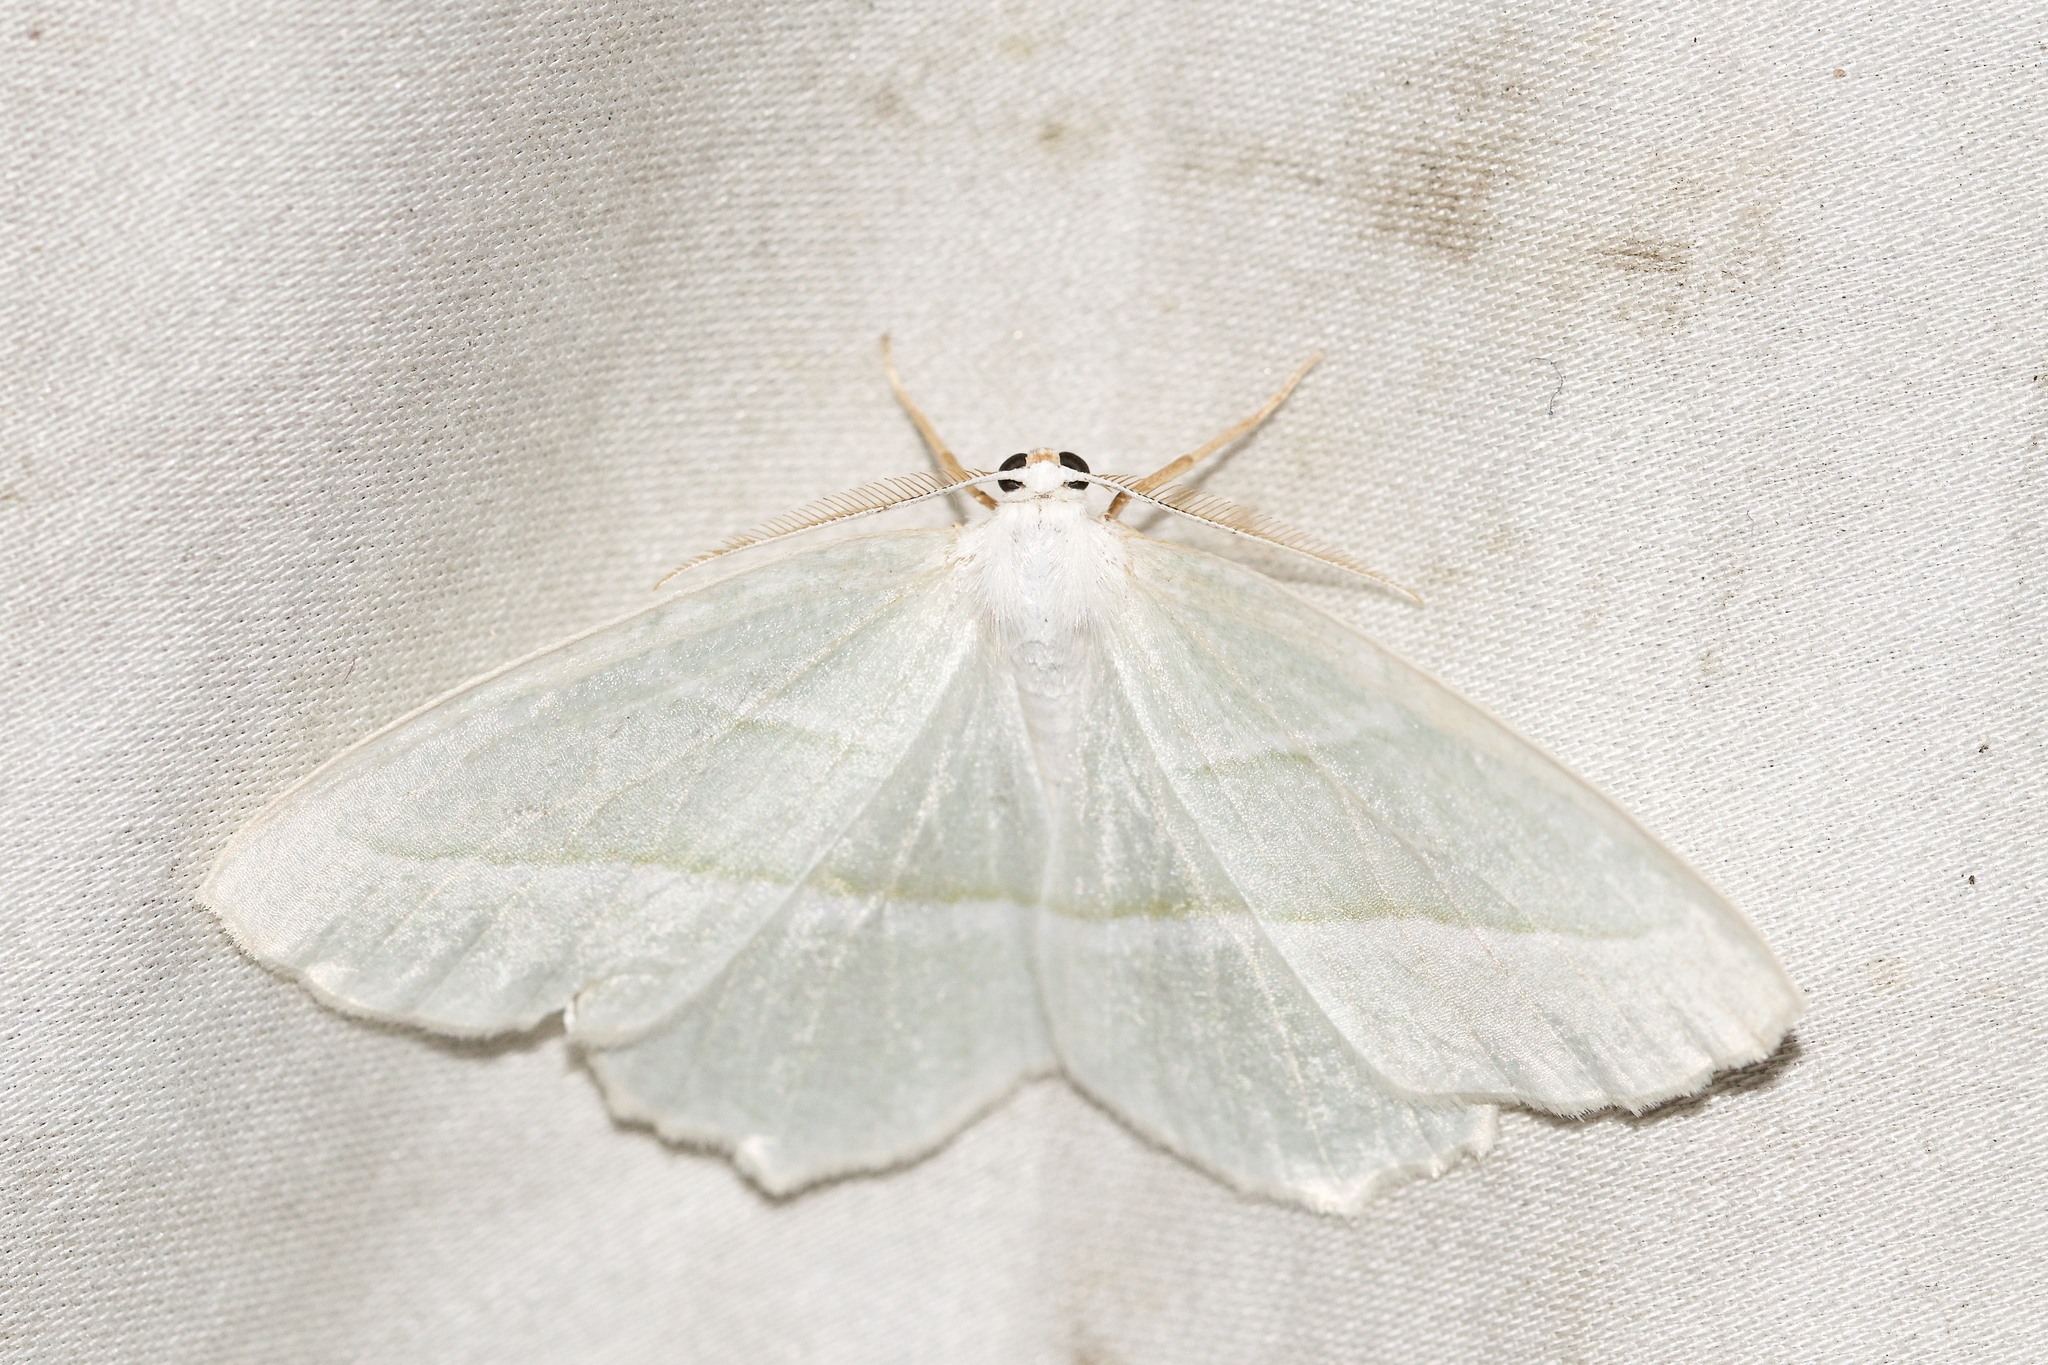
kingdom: Animalia
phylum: Arthropoda
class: Insecta
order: Lepidoptera
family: Geometridae
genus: Campaea
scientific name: Campaea perlata
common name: Fringed looper
